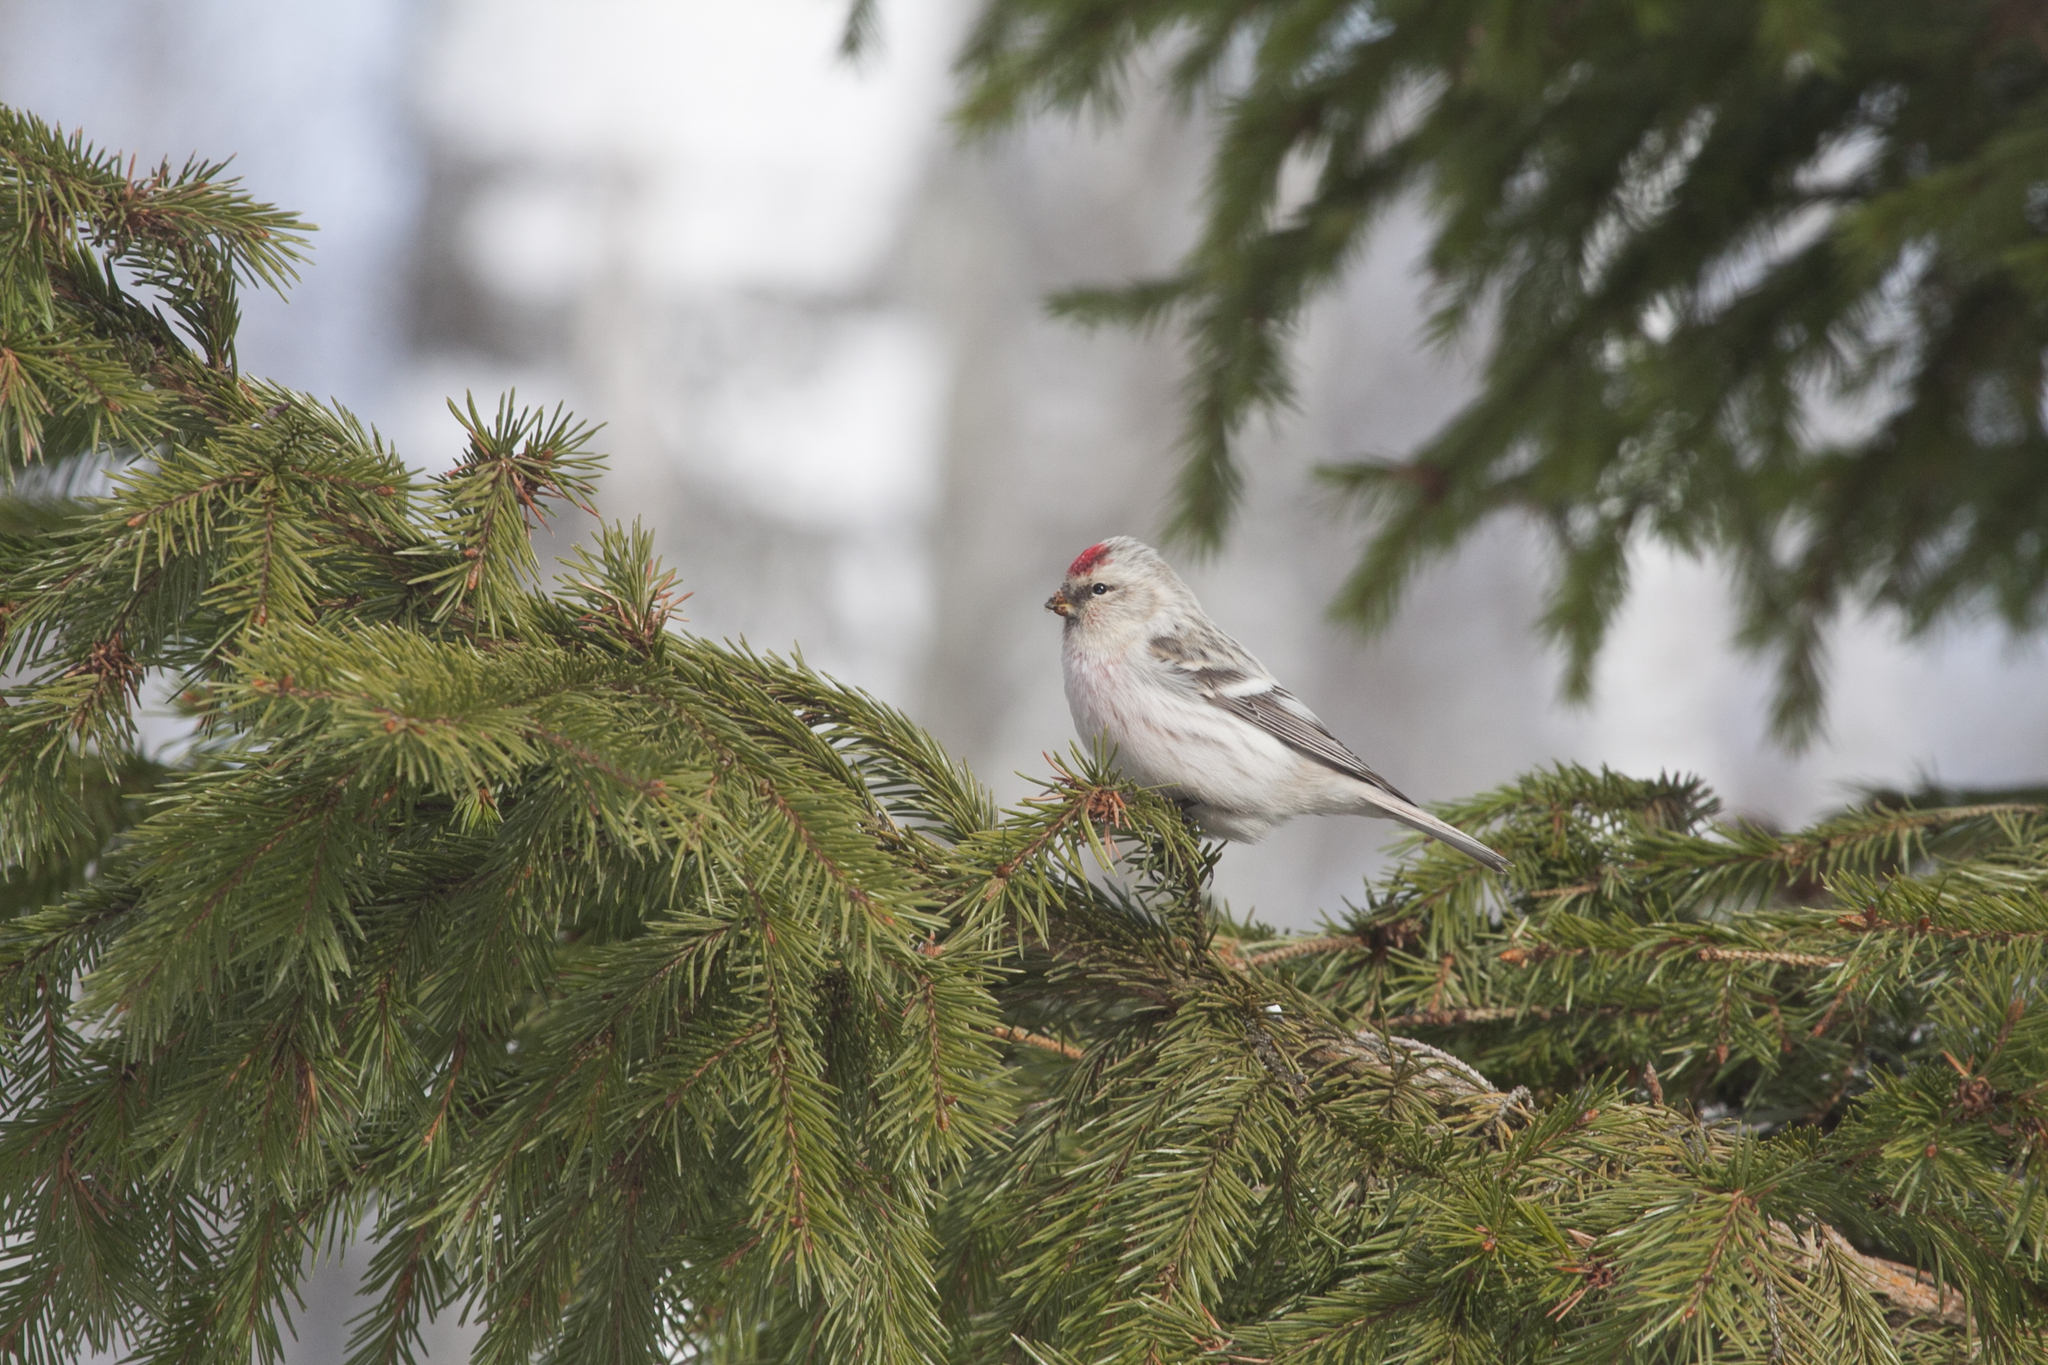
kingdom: Animalia
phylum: Chordata
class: Aves
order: Passeriformes
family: Fringillidae
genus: Acanthis
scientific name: Acanthis hornemanni
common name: Arctic redpoll
